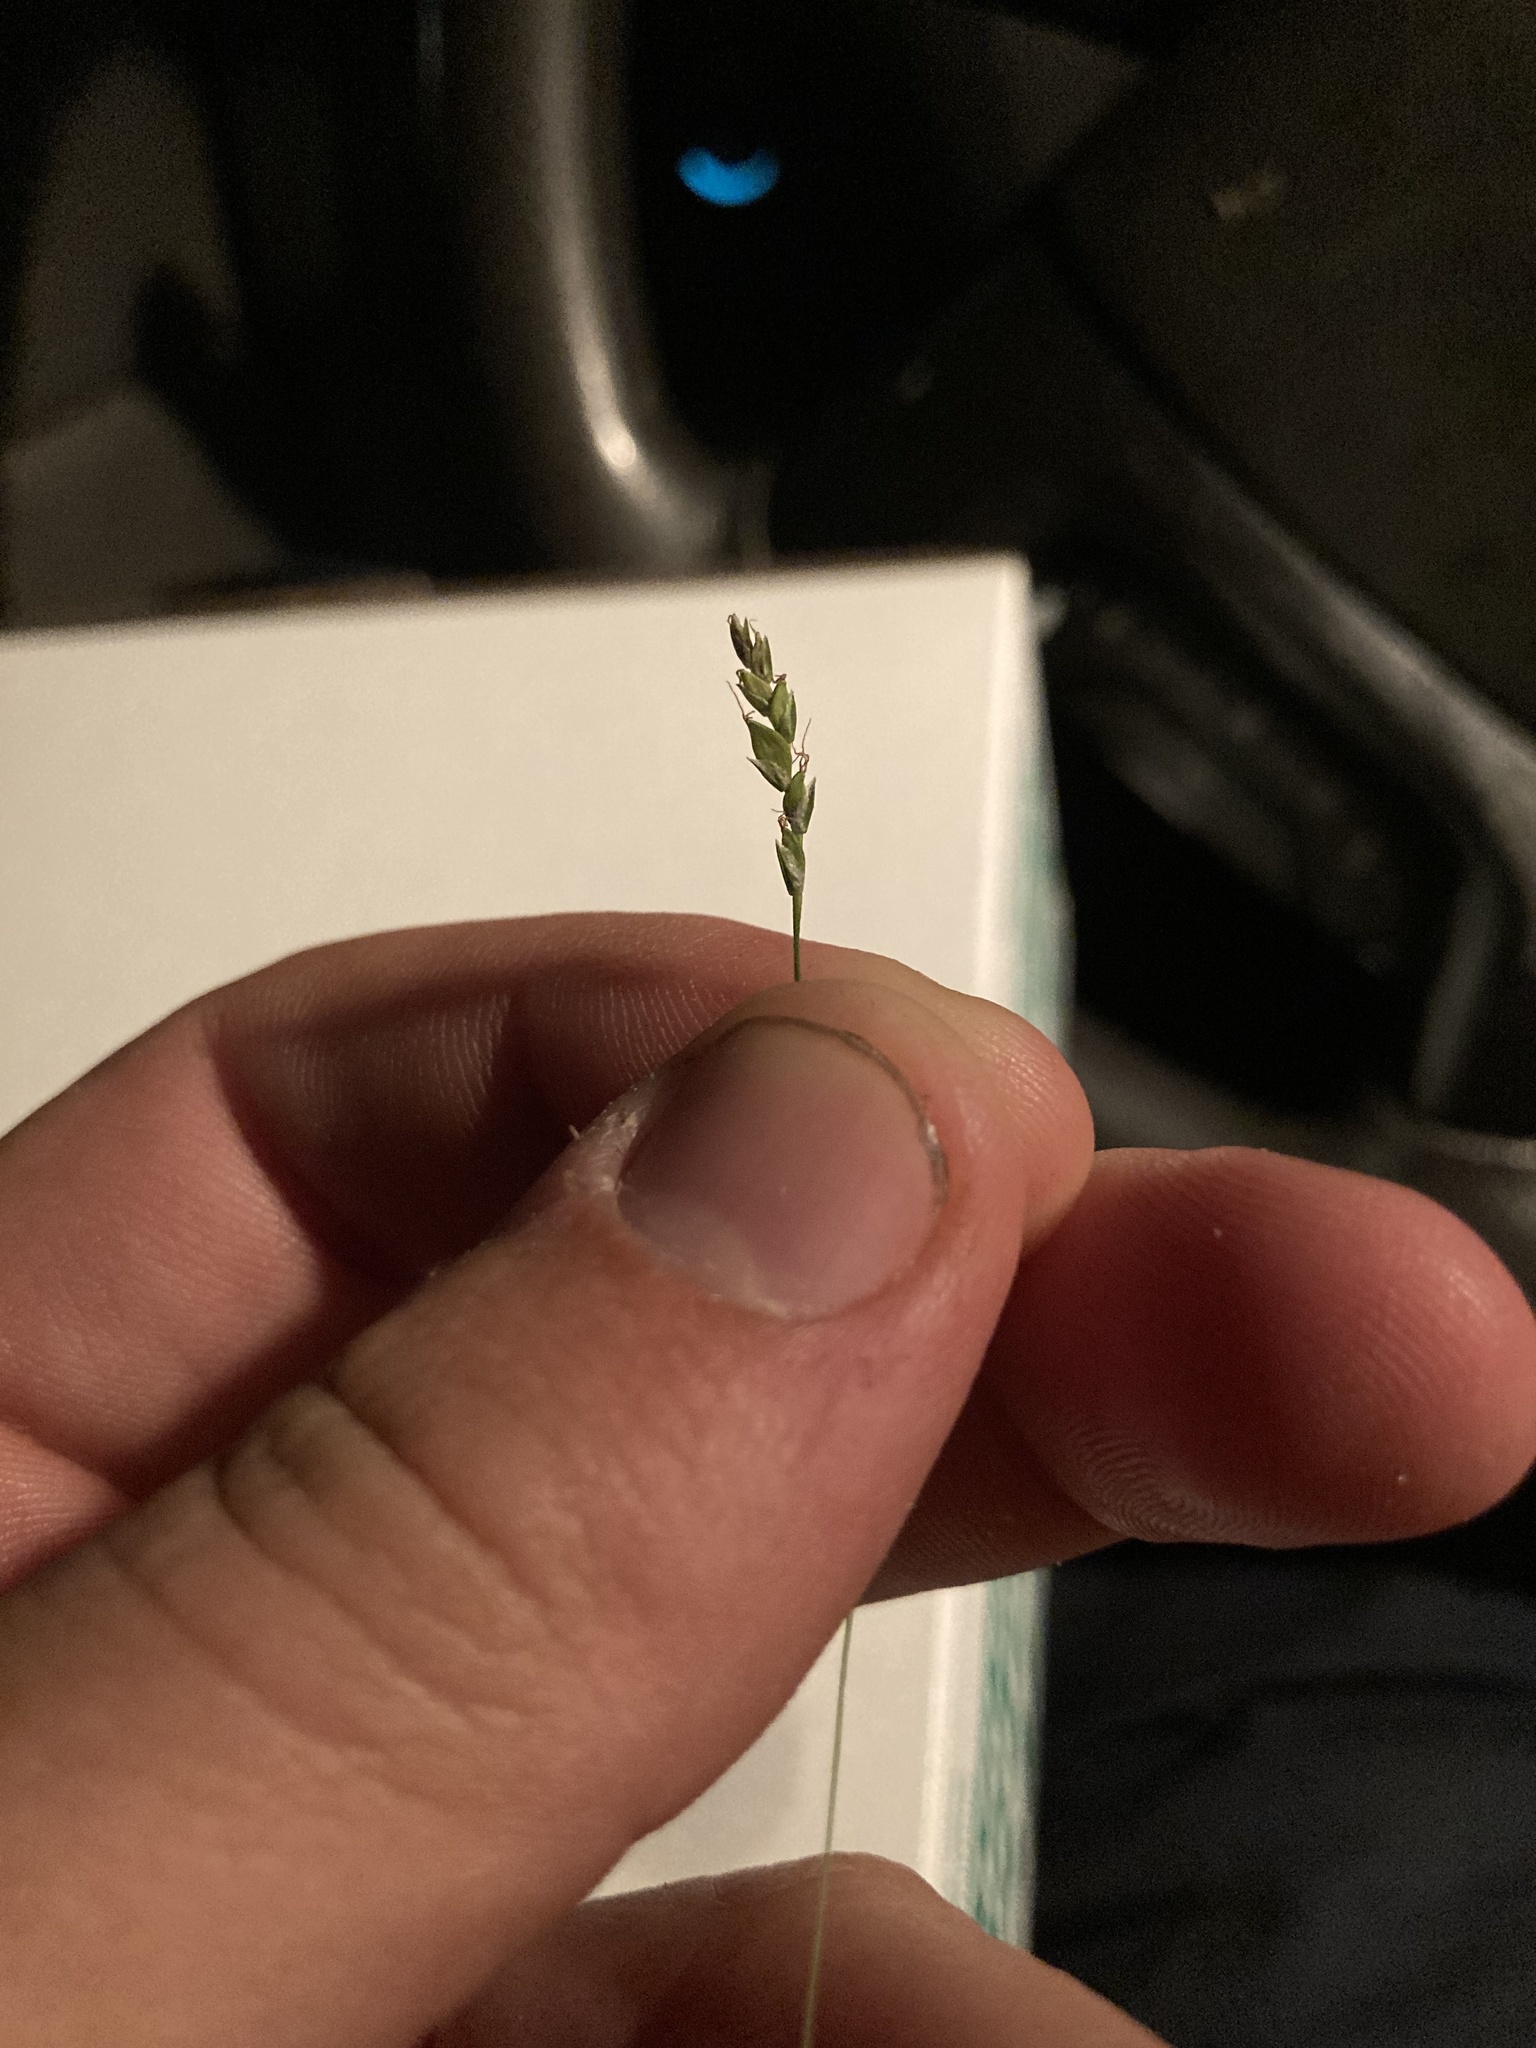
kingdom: Plantae
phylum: Tracheophyta
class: Liliopsida
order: Poales
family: Cyperaceae
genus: Carex
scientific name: Carex styloflexa
